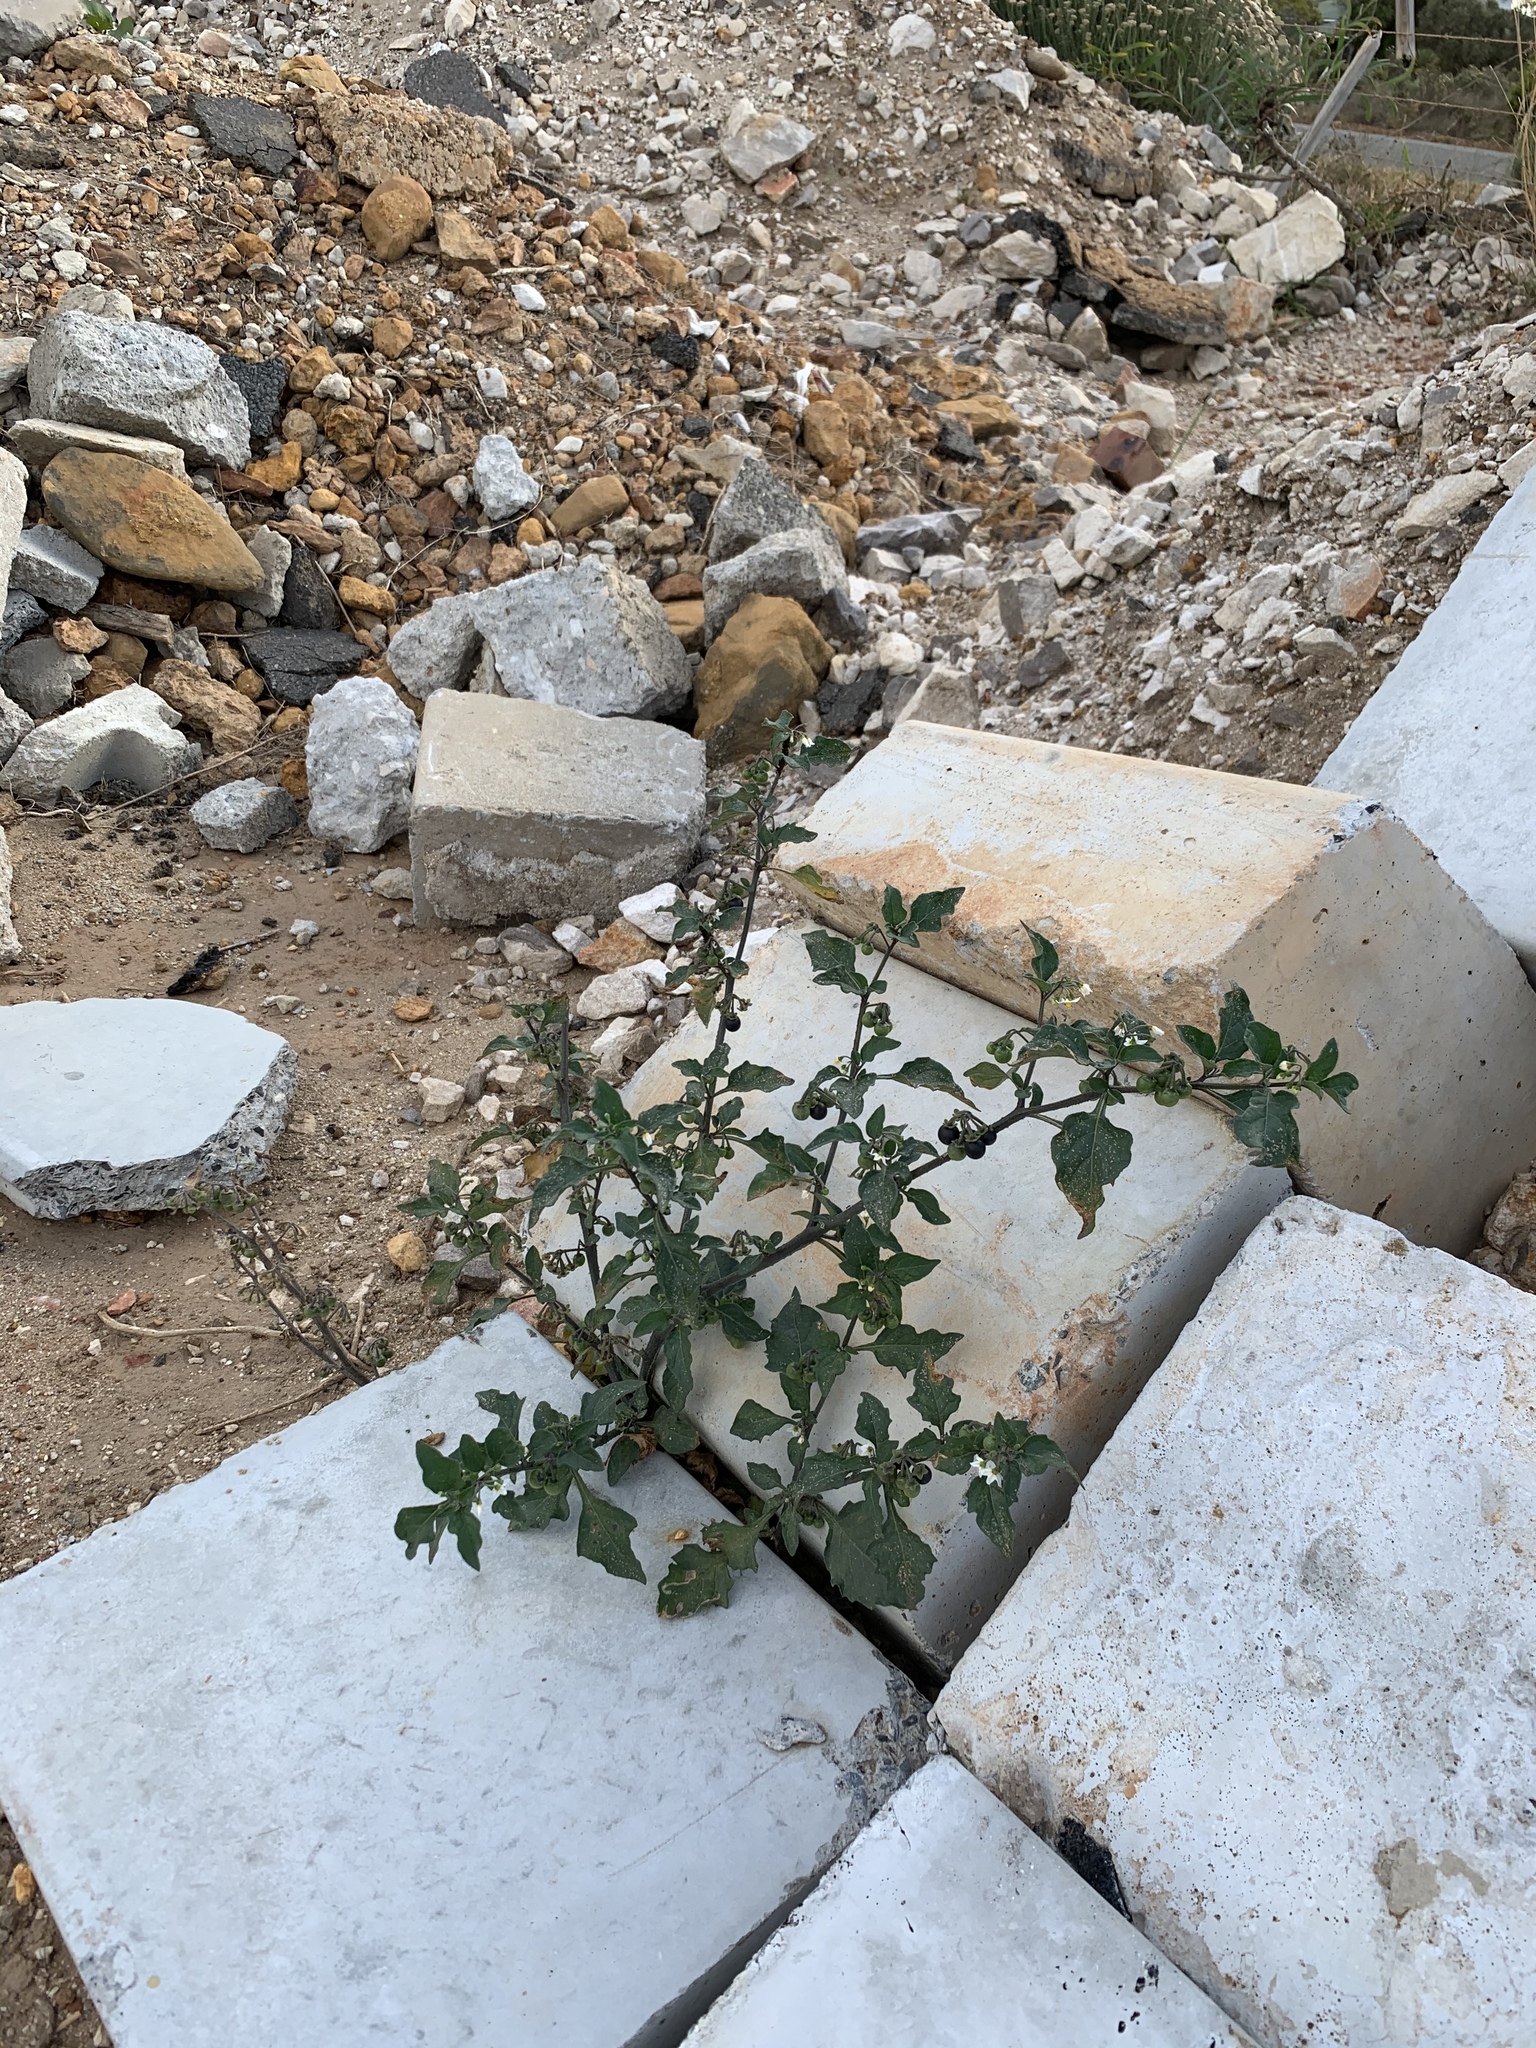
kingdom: Plantae
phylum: Tracheophyta
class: Magnoliopsida
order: Solanales
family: Solanaceae
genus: Solanum
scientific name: Solanum nigrum
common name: Black nightshade
